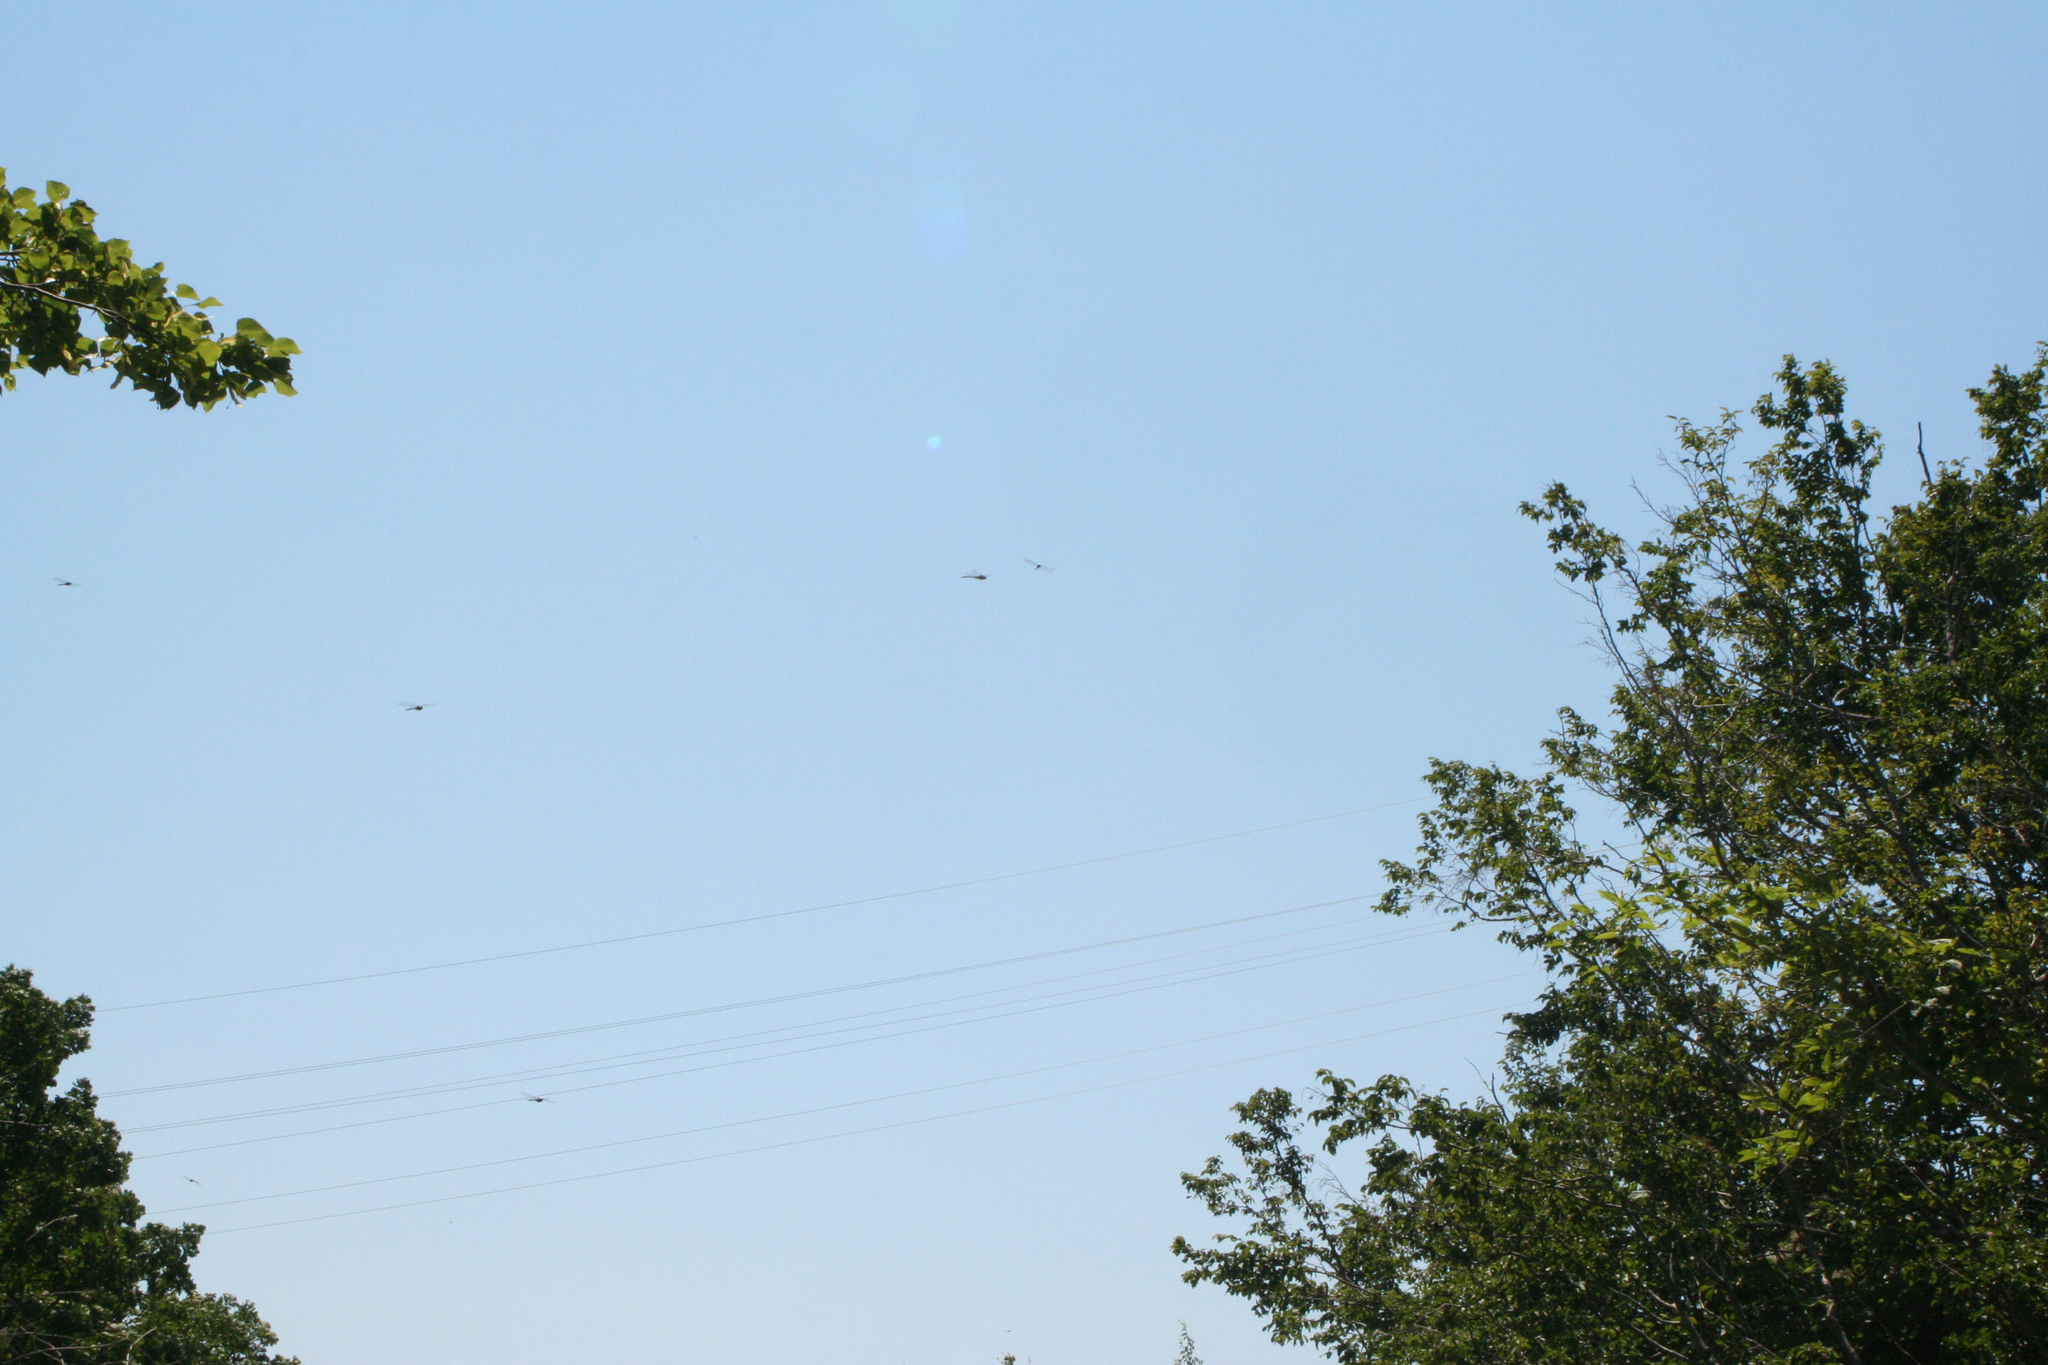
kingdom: Animalia
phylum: Arthropoda
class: Insecta
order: Odonata
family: Aeshnidae
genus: Aeshna
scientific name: Aeshna mixta
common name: Migrant hawker
